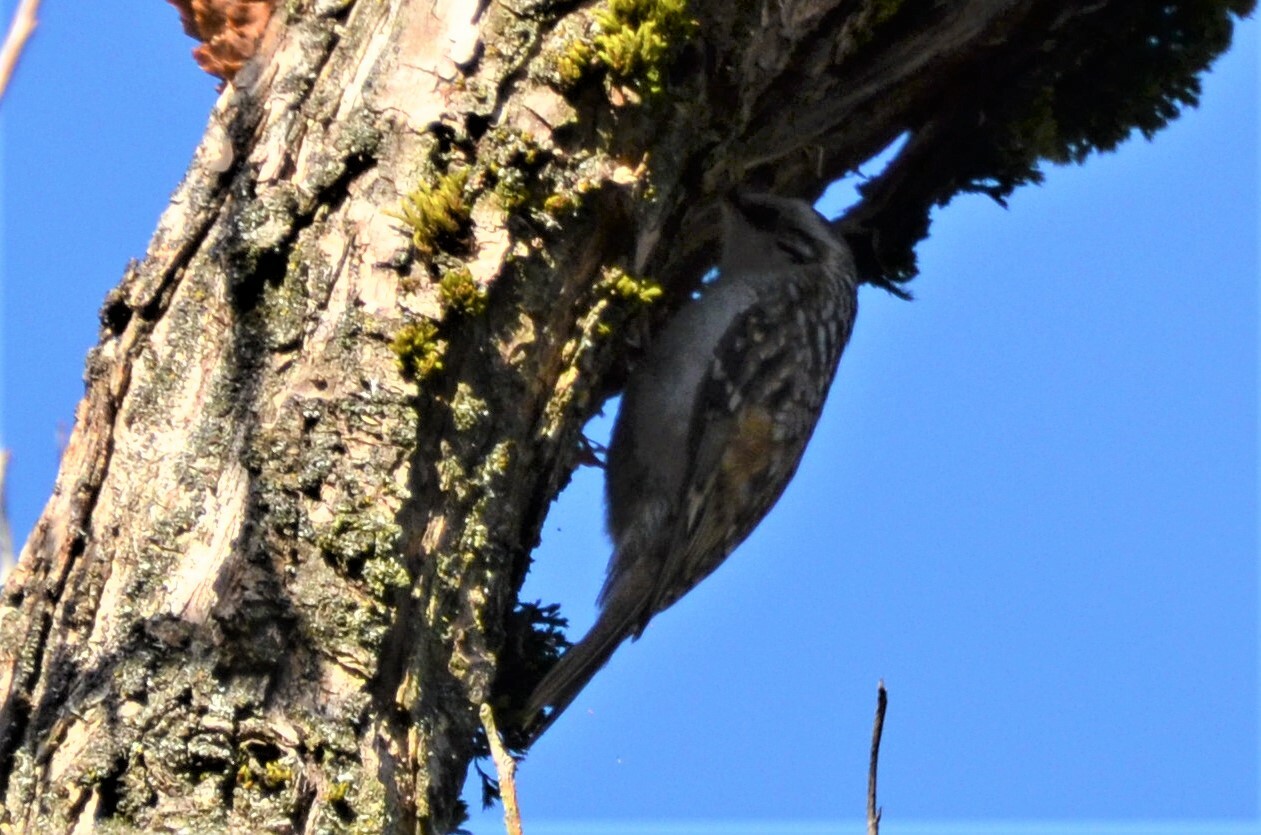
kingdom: Animalia
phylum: Chordata
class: Aves
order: Passeriformes
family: Certhiidae
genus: Certhia
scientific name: Certhia familiaris
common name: Eurasian treecreeper
